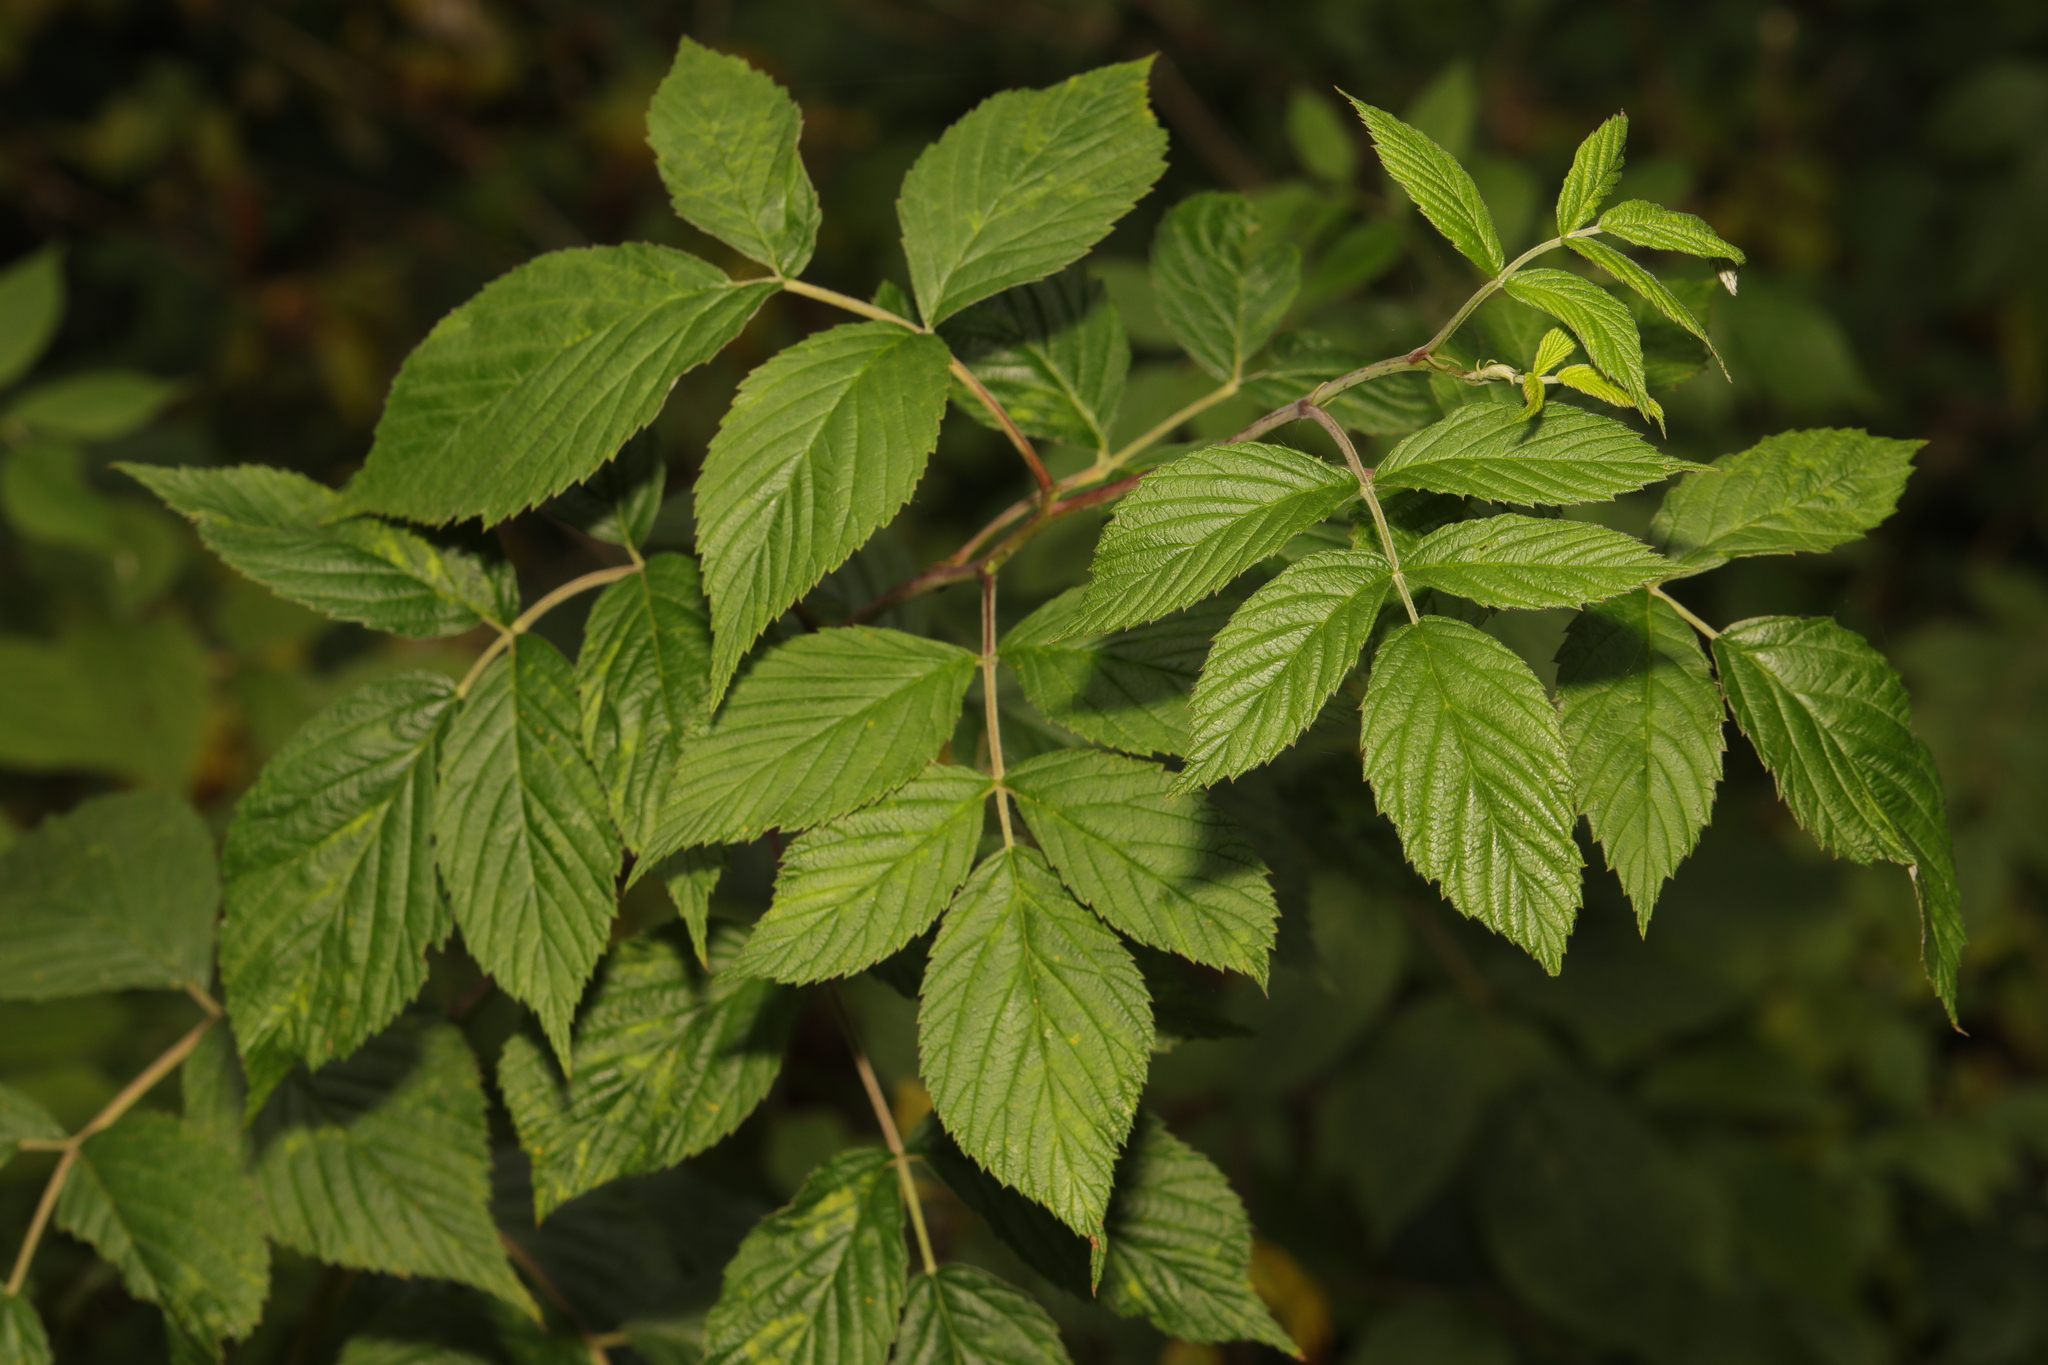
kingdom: Plantae
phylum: Tracheophyta
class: Magnoliopsida
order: Rosales
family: Rosaceae
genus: Rubus
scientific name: Rubus idaeus
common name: Raspberry
